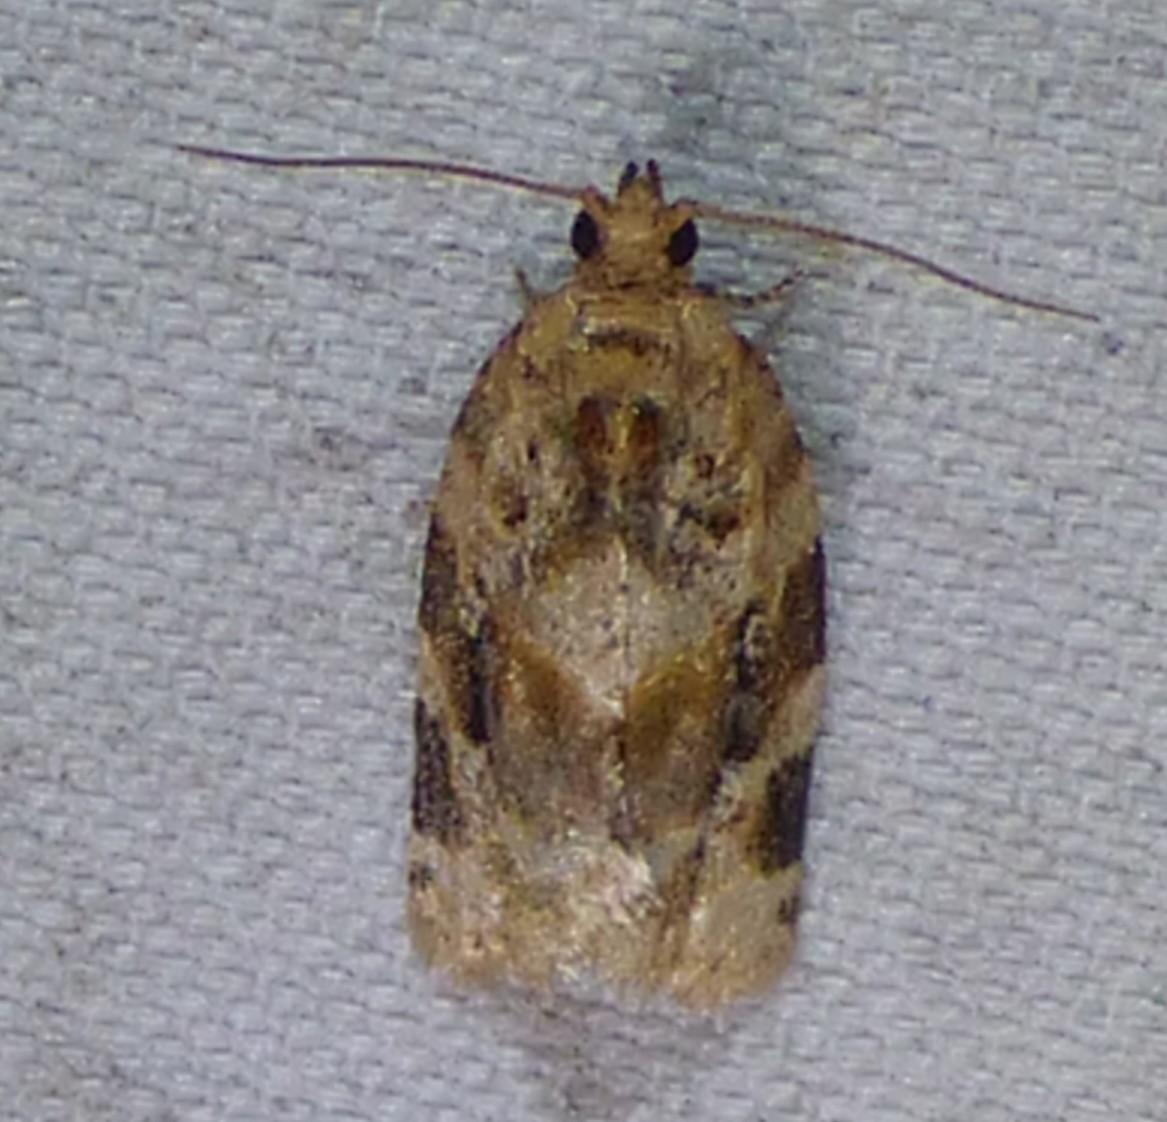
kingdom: Animalia
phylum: Arthropoda
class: Insecta
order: Lepidoptera
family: Tortricidae
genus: Argyrotaenia
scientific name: Argyrotaenia velutinana
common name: Red-banded leafroller moth
